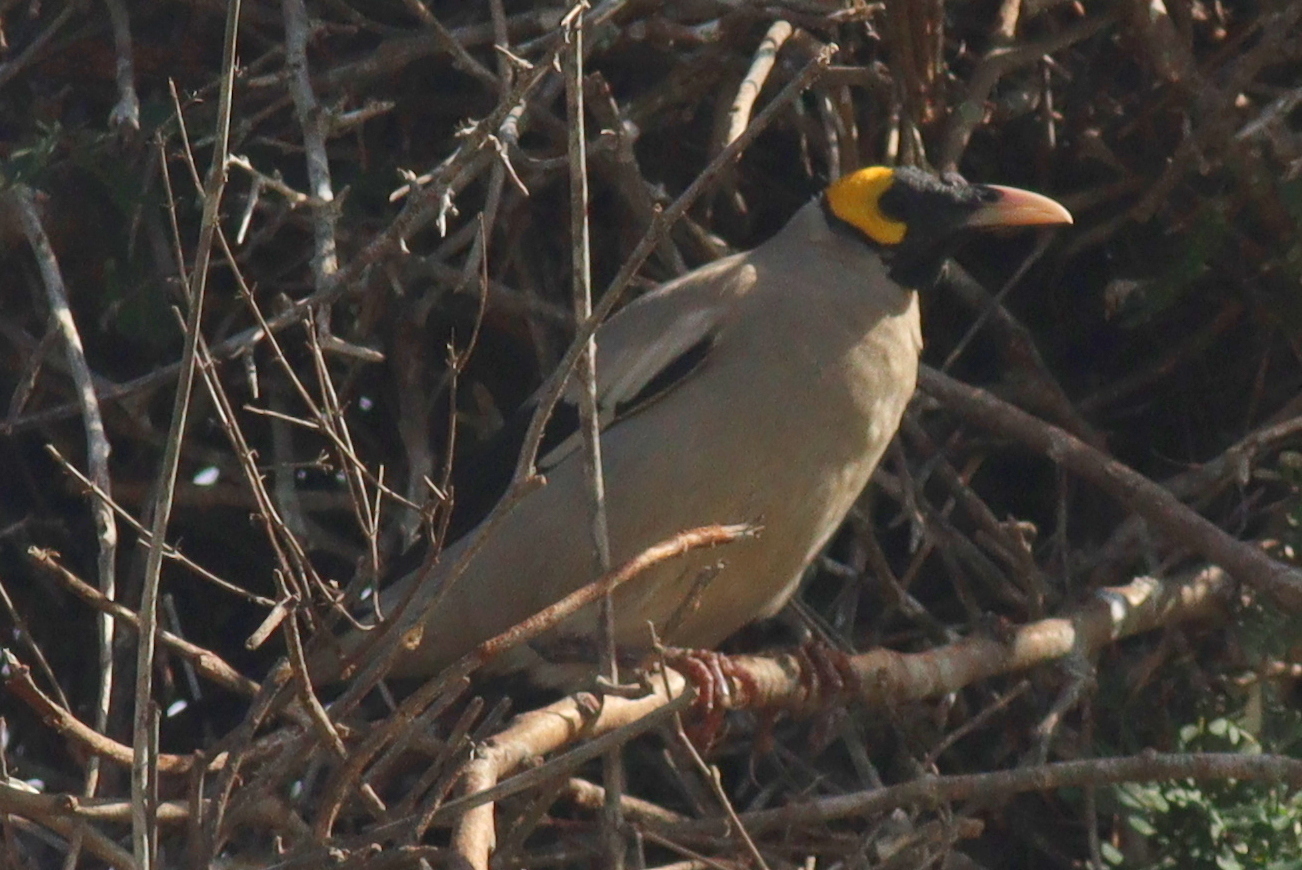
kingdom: Animalia
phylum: Chordata
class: Aves
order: Passeriformes
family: Sturnidae
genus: Creatophora
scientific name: Creatophora cinerea
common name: Wattled starling
